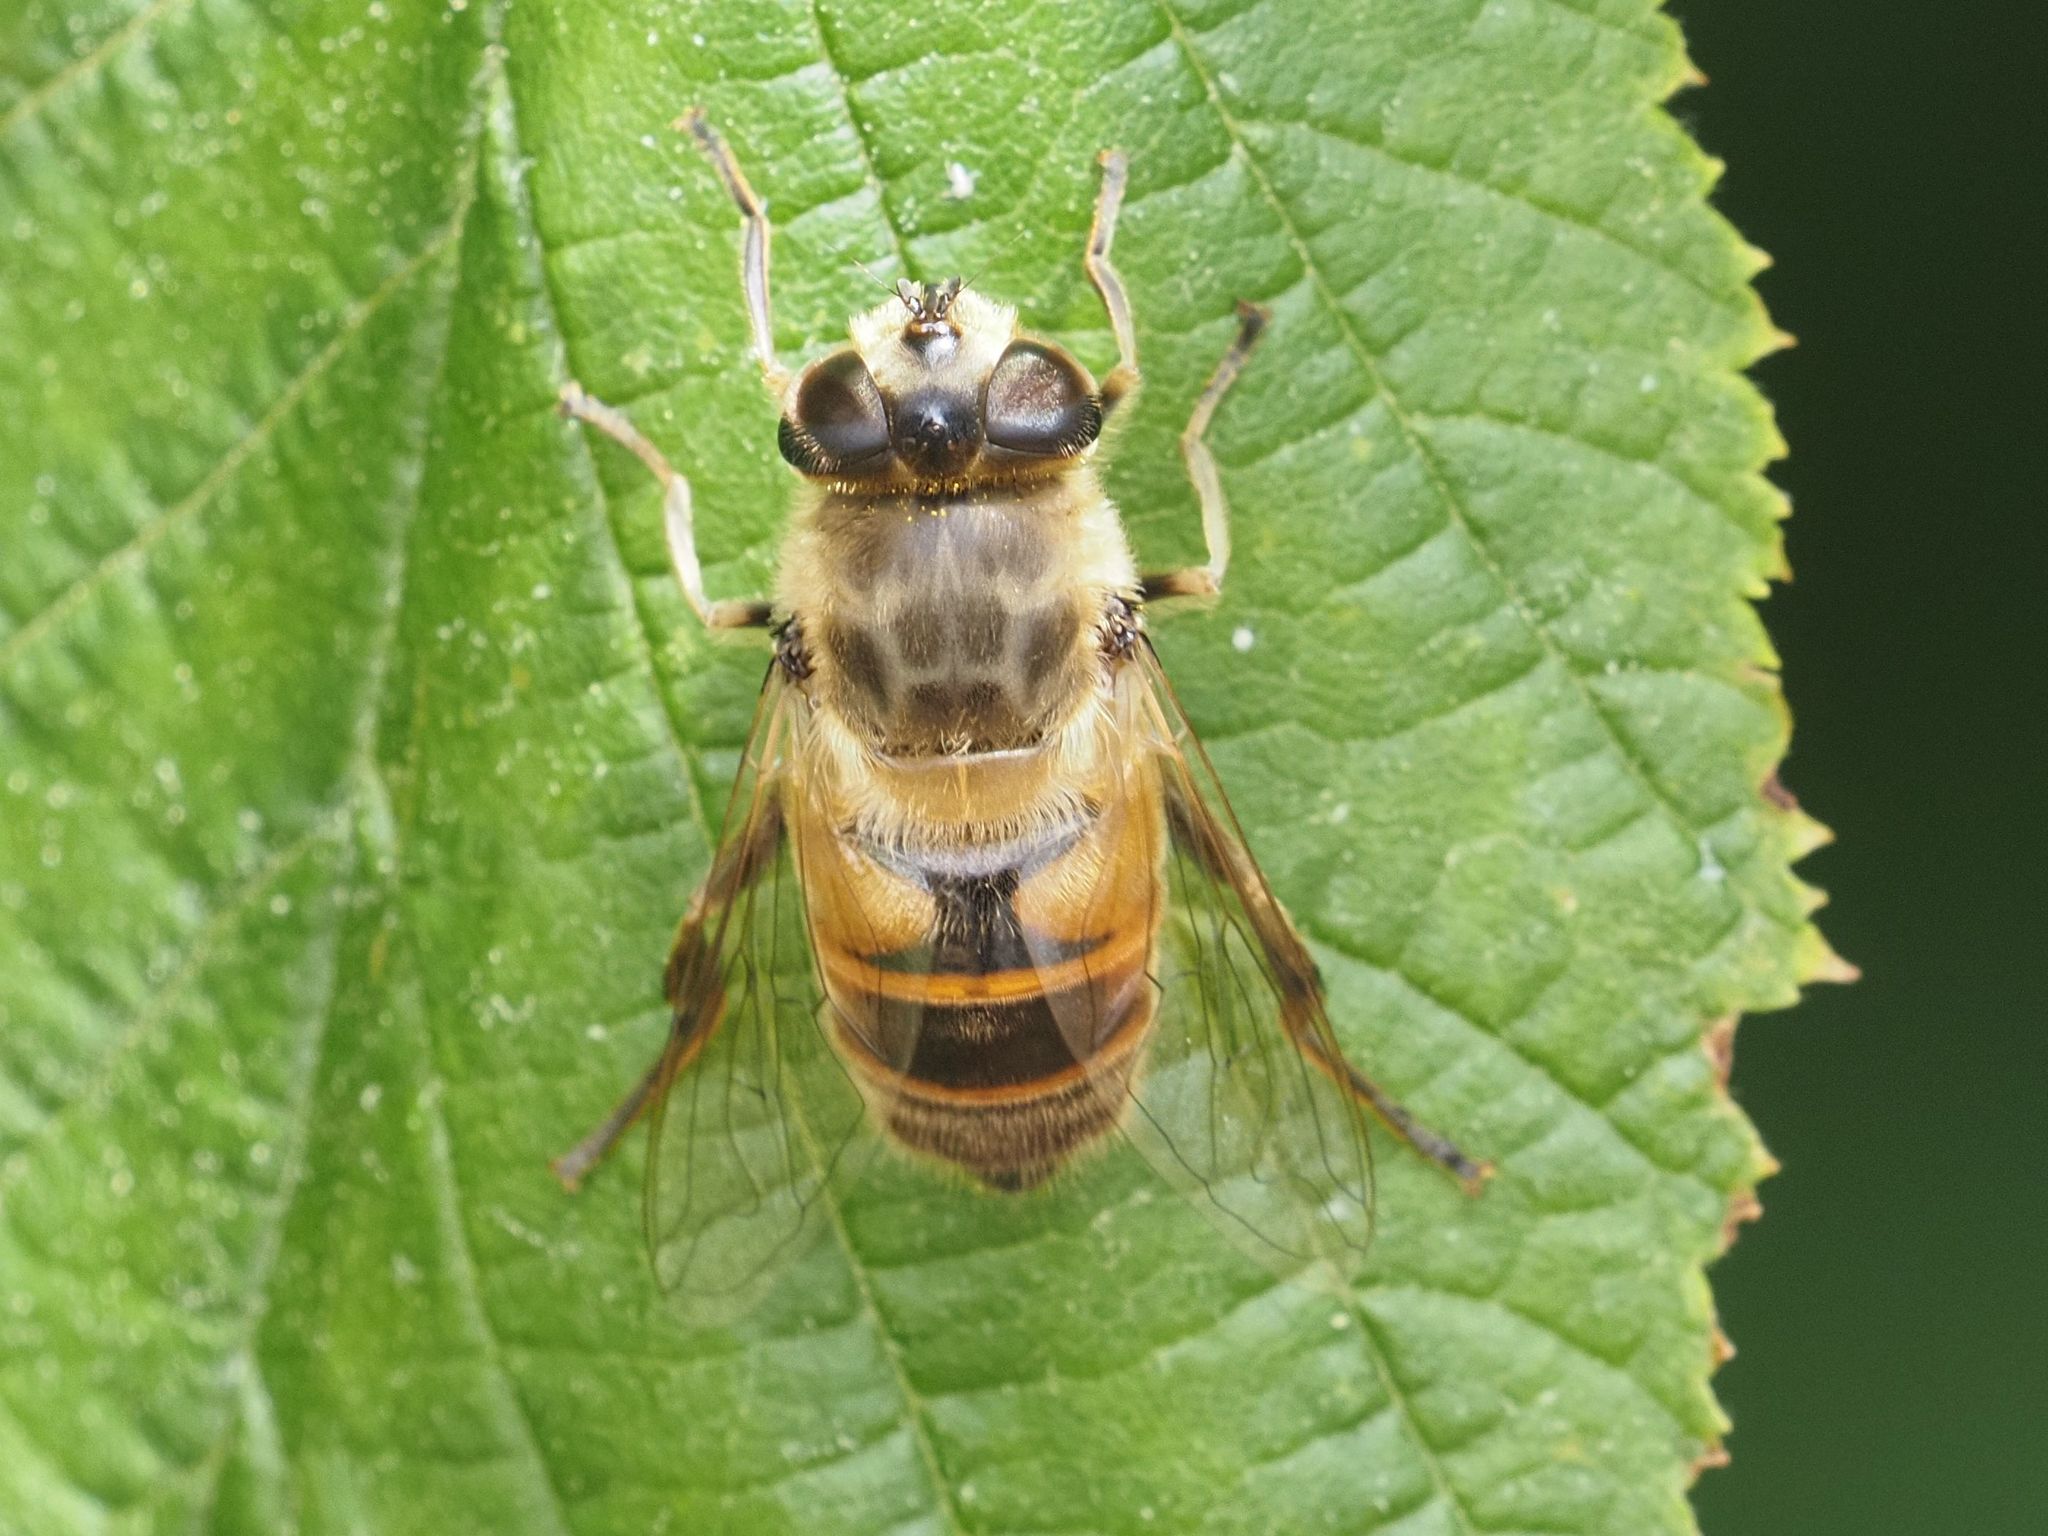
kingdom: Animalia
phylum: Arthropoda
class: Insecta
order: Diptera
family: Syrphidae
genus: Eristalis
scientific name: Eristalis tenax
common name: Drone fly
